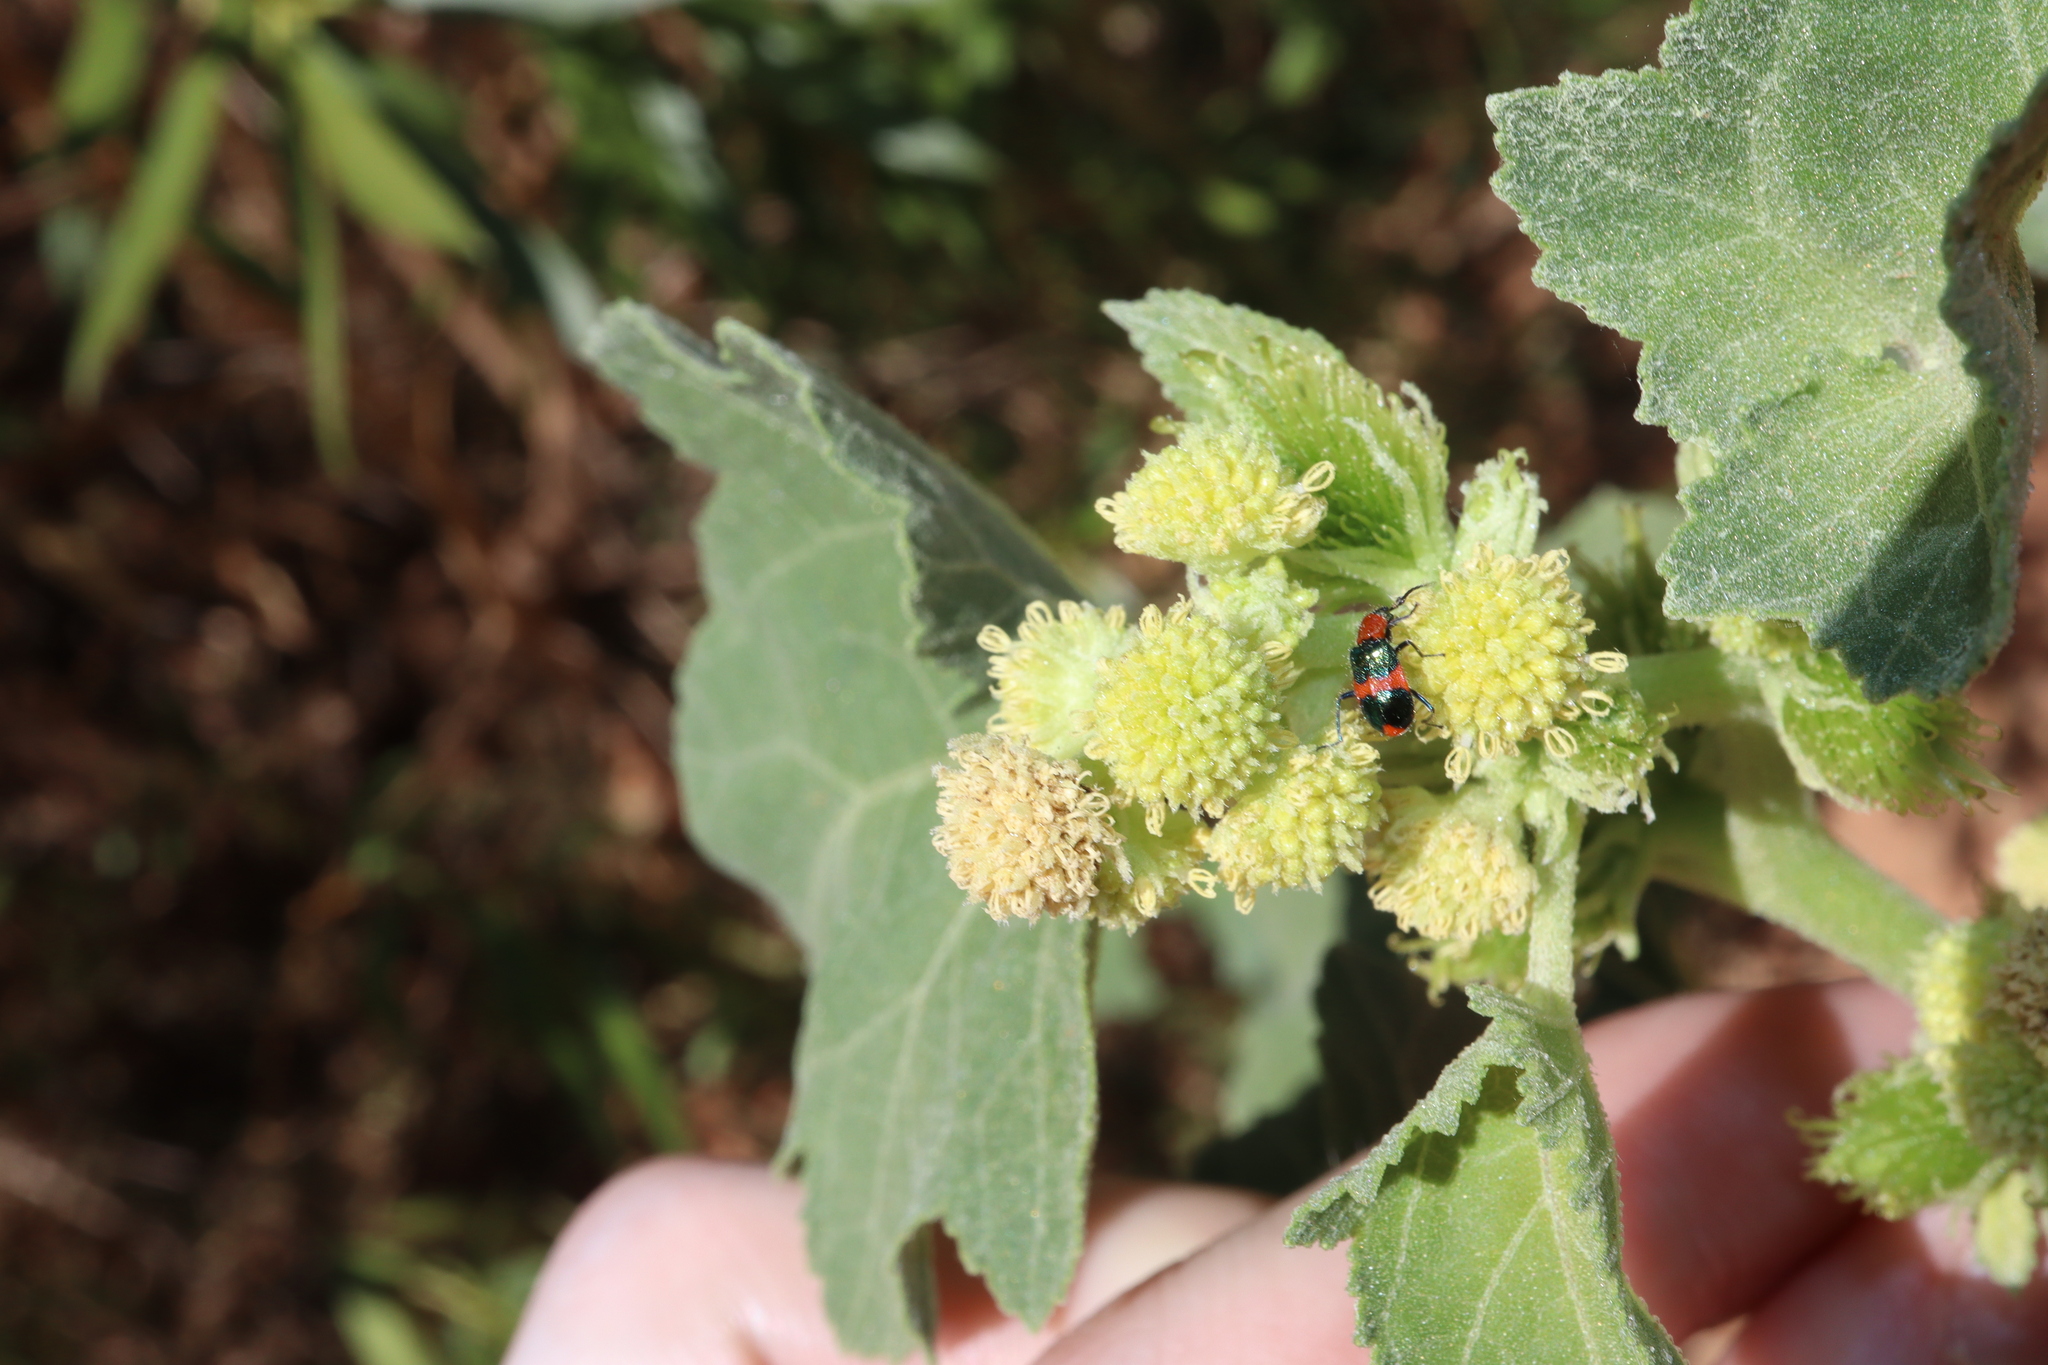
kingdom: Animalia
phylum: Arthropoda
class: Insecta
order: Coleoptera
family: Melyridae
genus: Dicranolaius
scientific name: Dicranolaius bellulus
